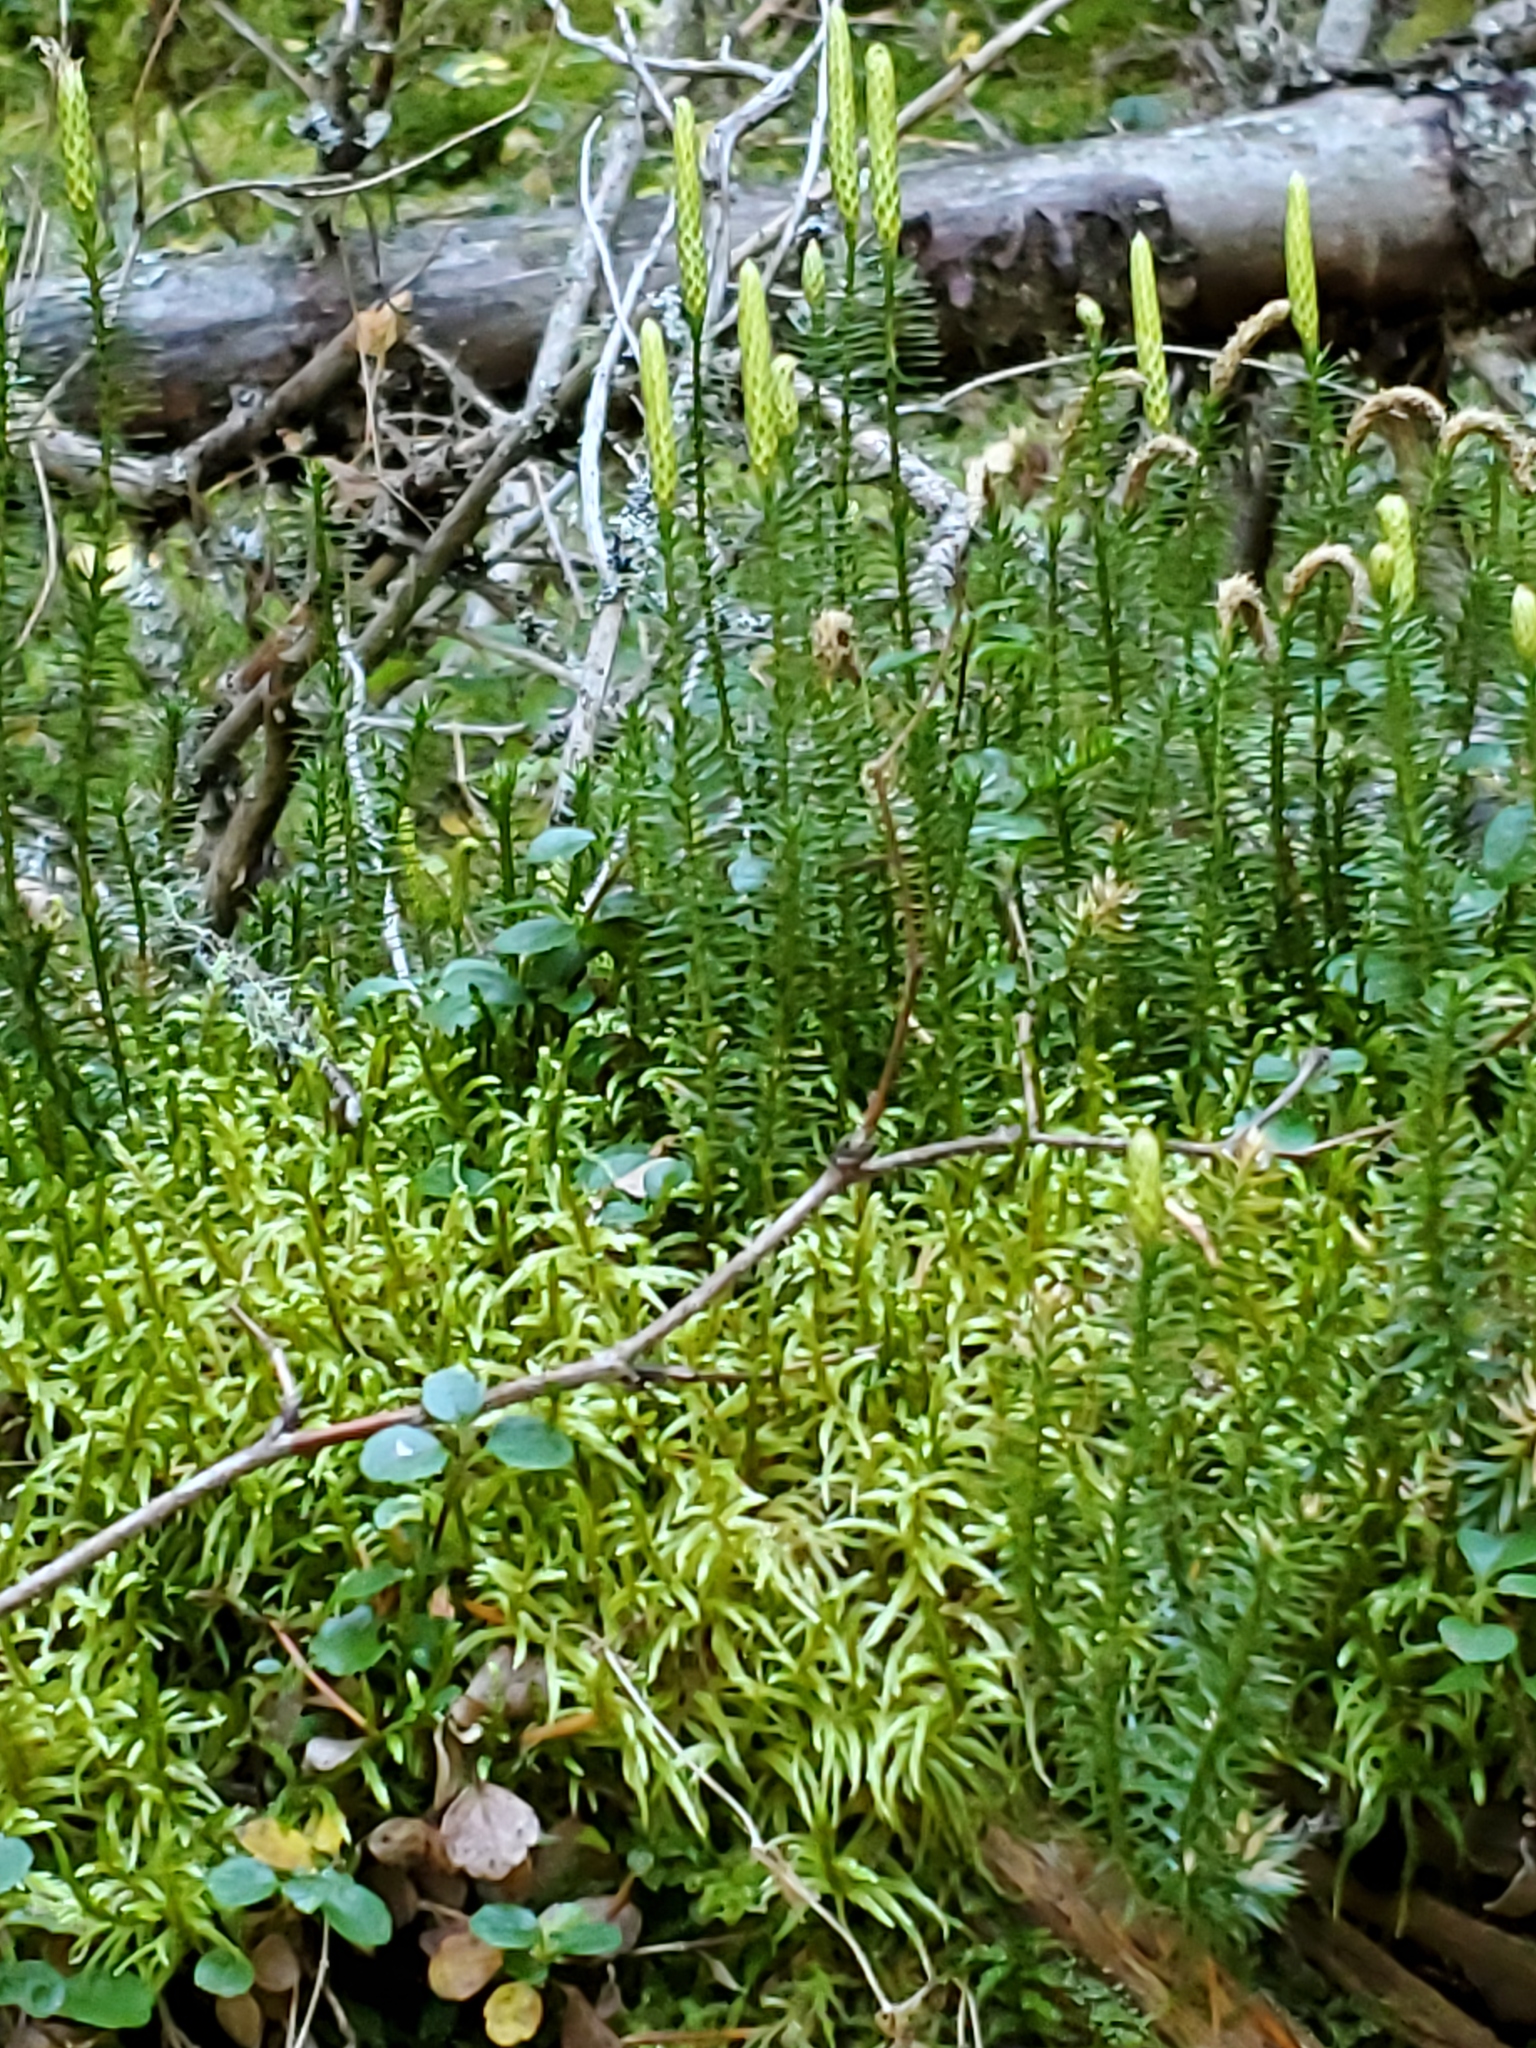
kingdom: Plantae
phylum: Tracheophyta
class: Lycopodiopsida
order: Lycopodiales
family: Lycopodiaceae
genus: Spinulum
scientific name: Spinulum annotinum
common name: Interrupted club-moss
